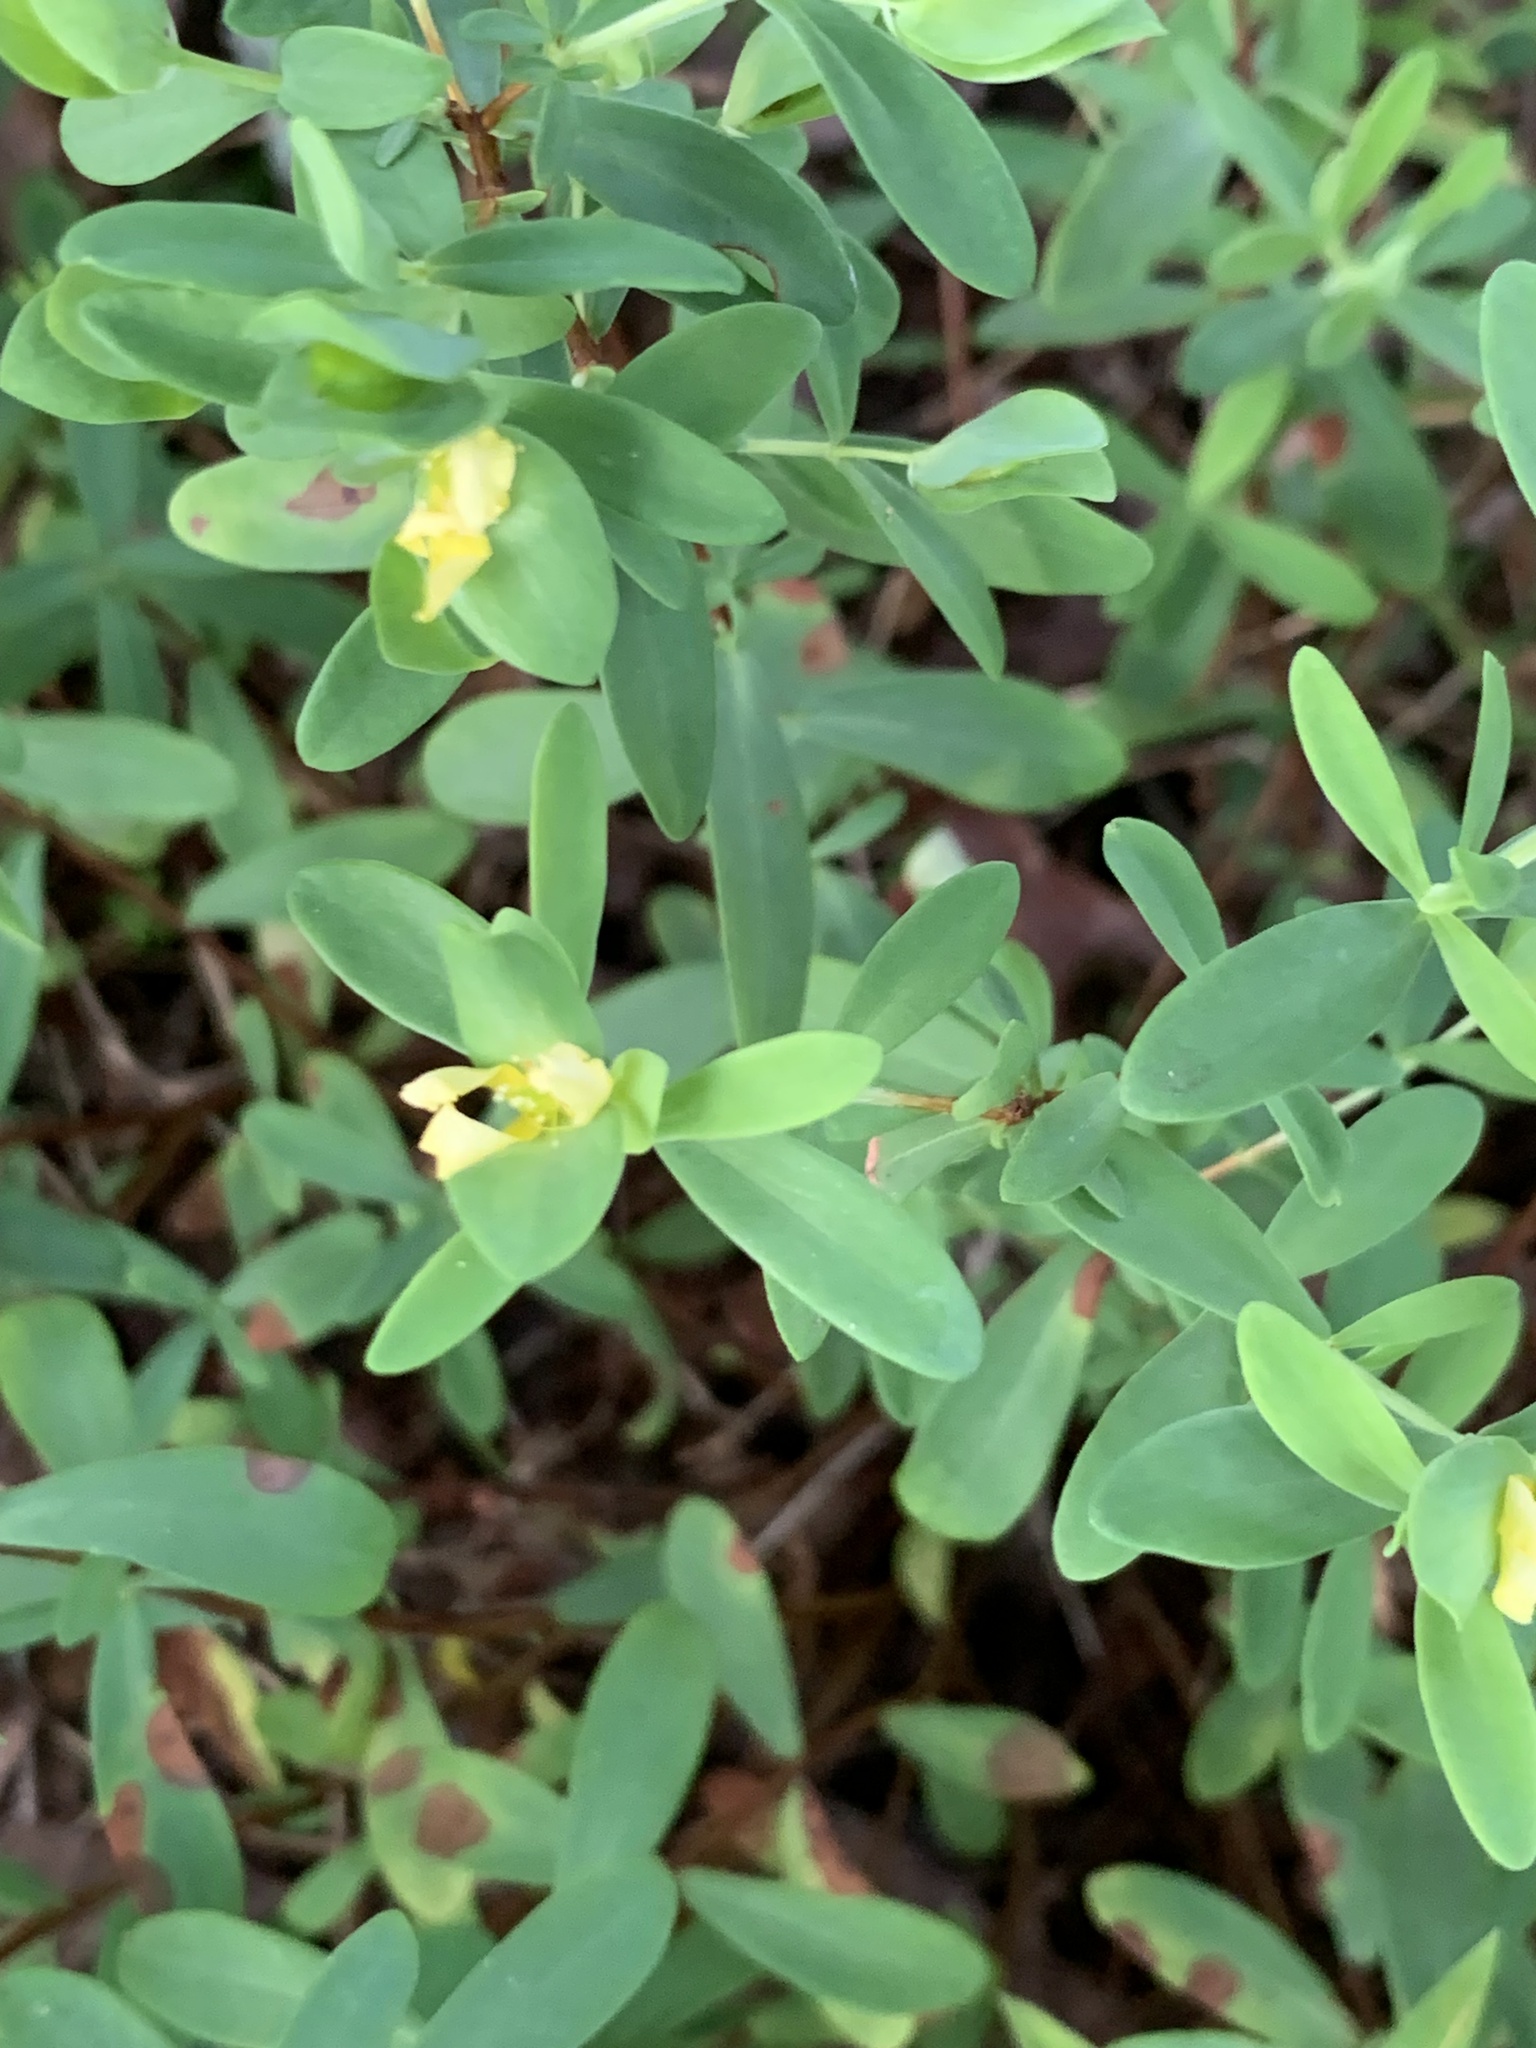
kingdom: Plantae
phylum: Tracheophyta
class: Magnoliopsida
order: Malpighiales
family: Hypericaceae
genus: Hypericum
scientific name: Hypericum hypericoides
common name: St. andrew's cross
